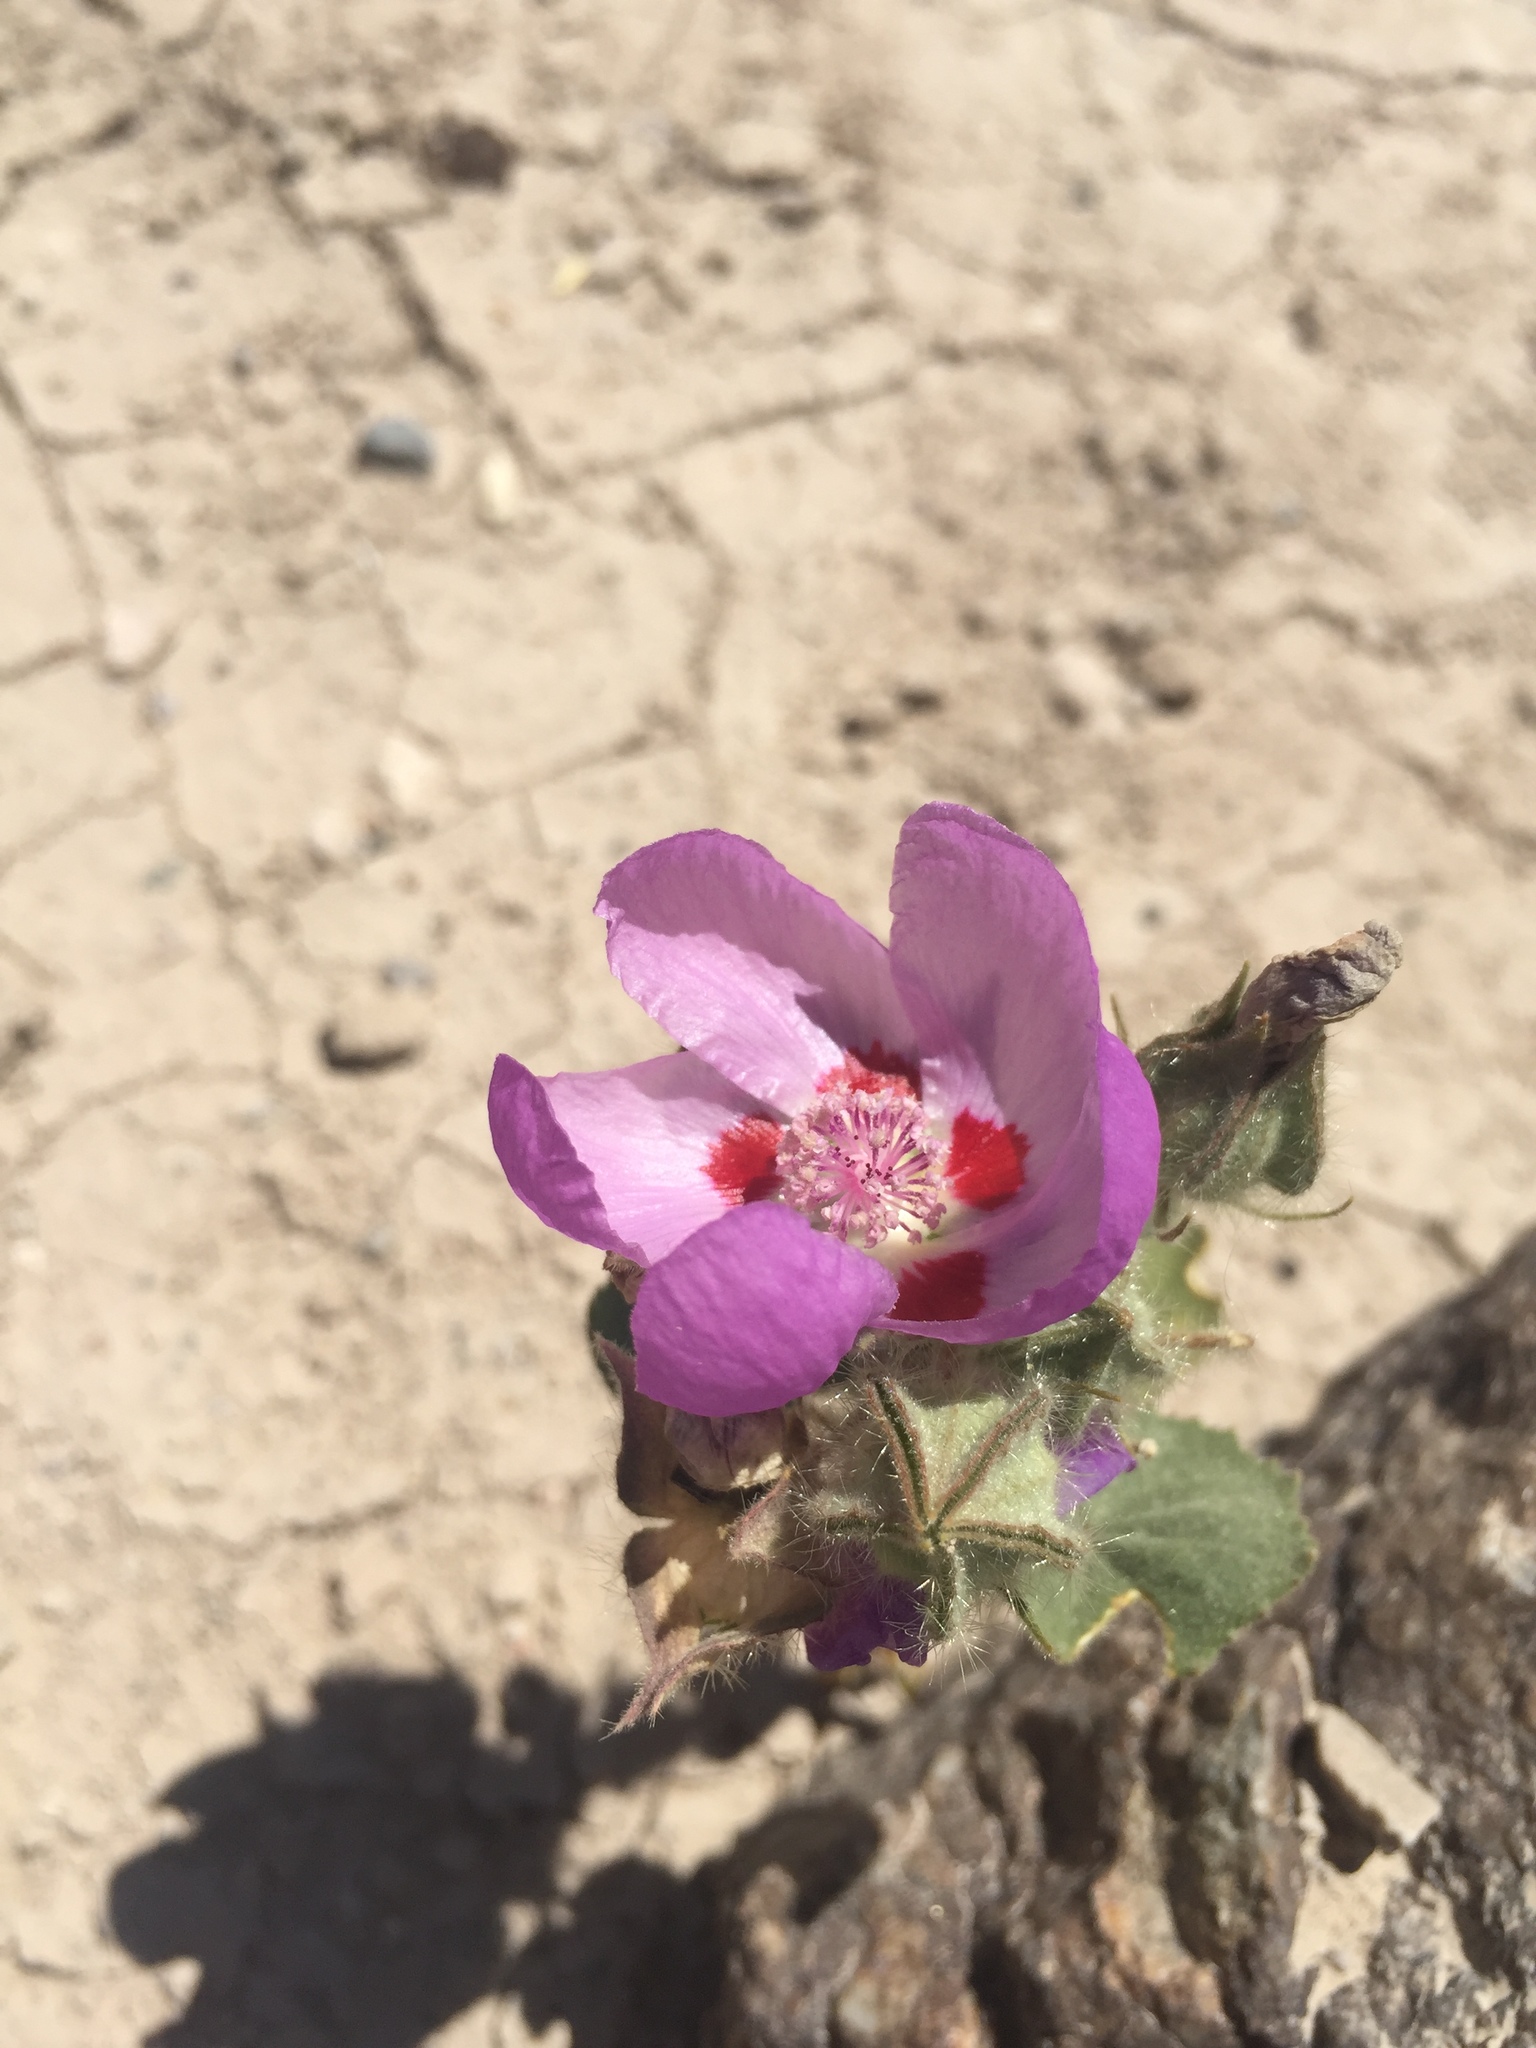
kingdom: Plantae
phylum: Tracheophyta
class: Magnoliopsida
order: Malvales
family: Malvaceae
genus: Eremalche
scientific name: Eremalche rotundifolia
